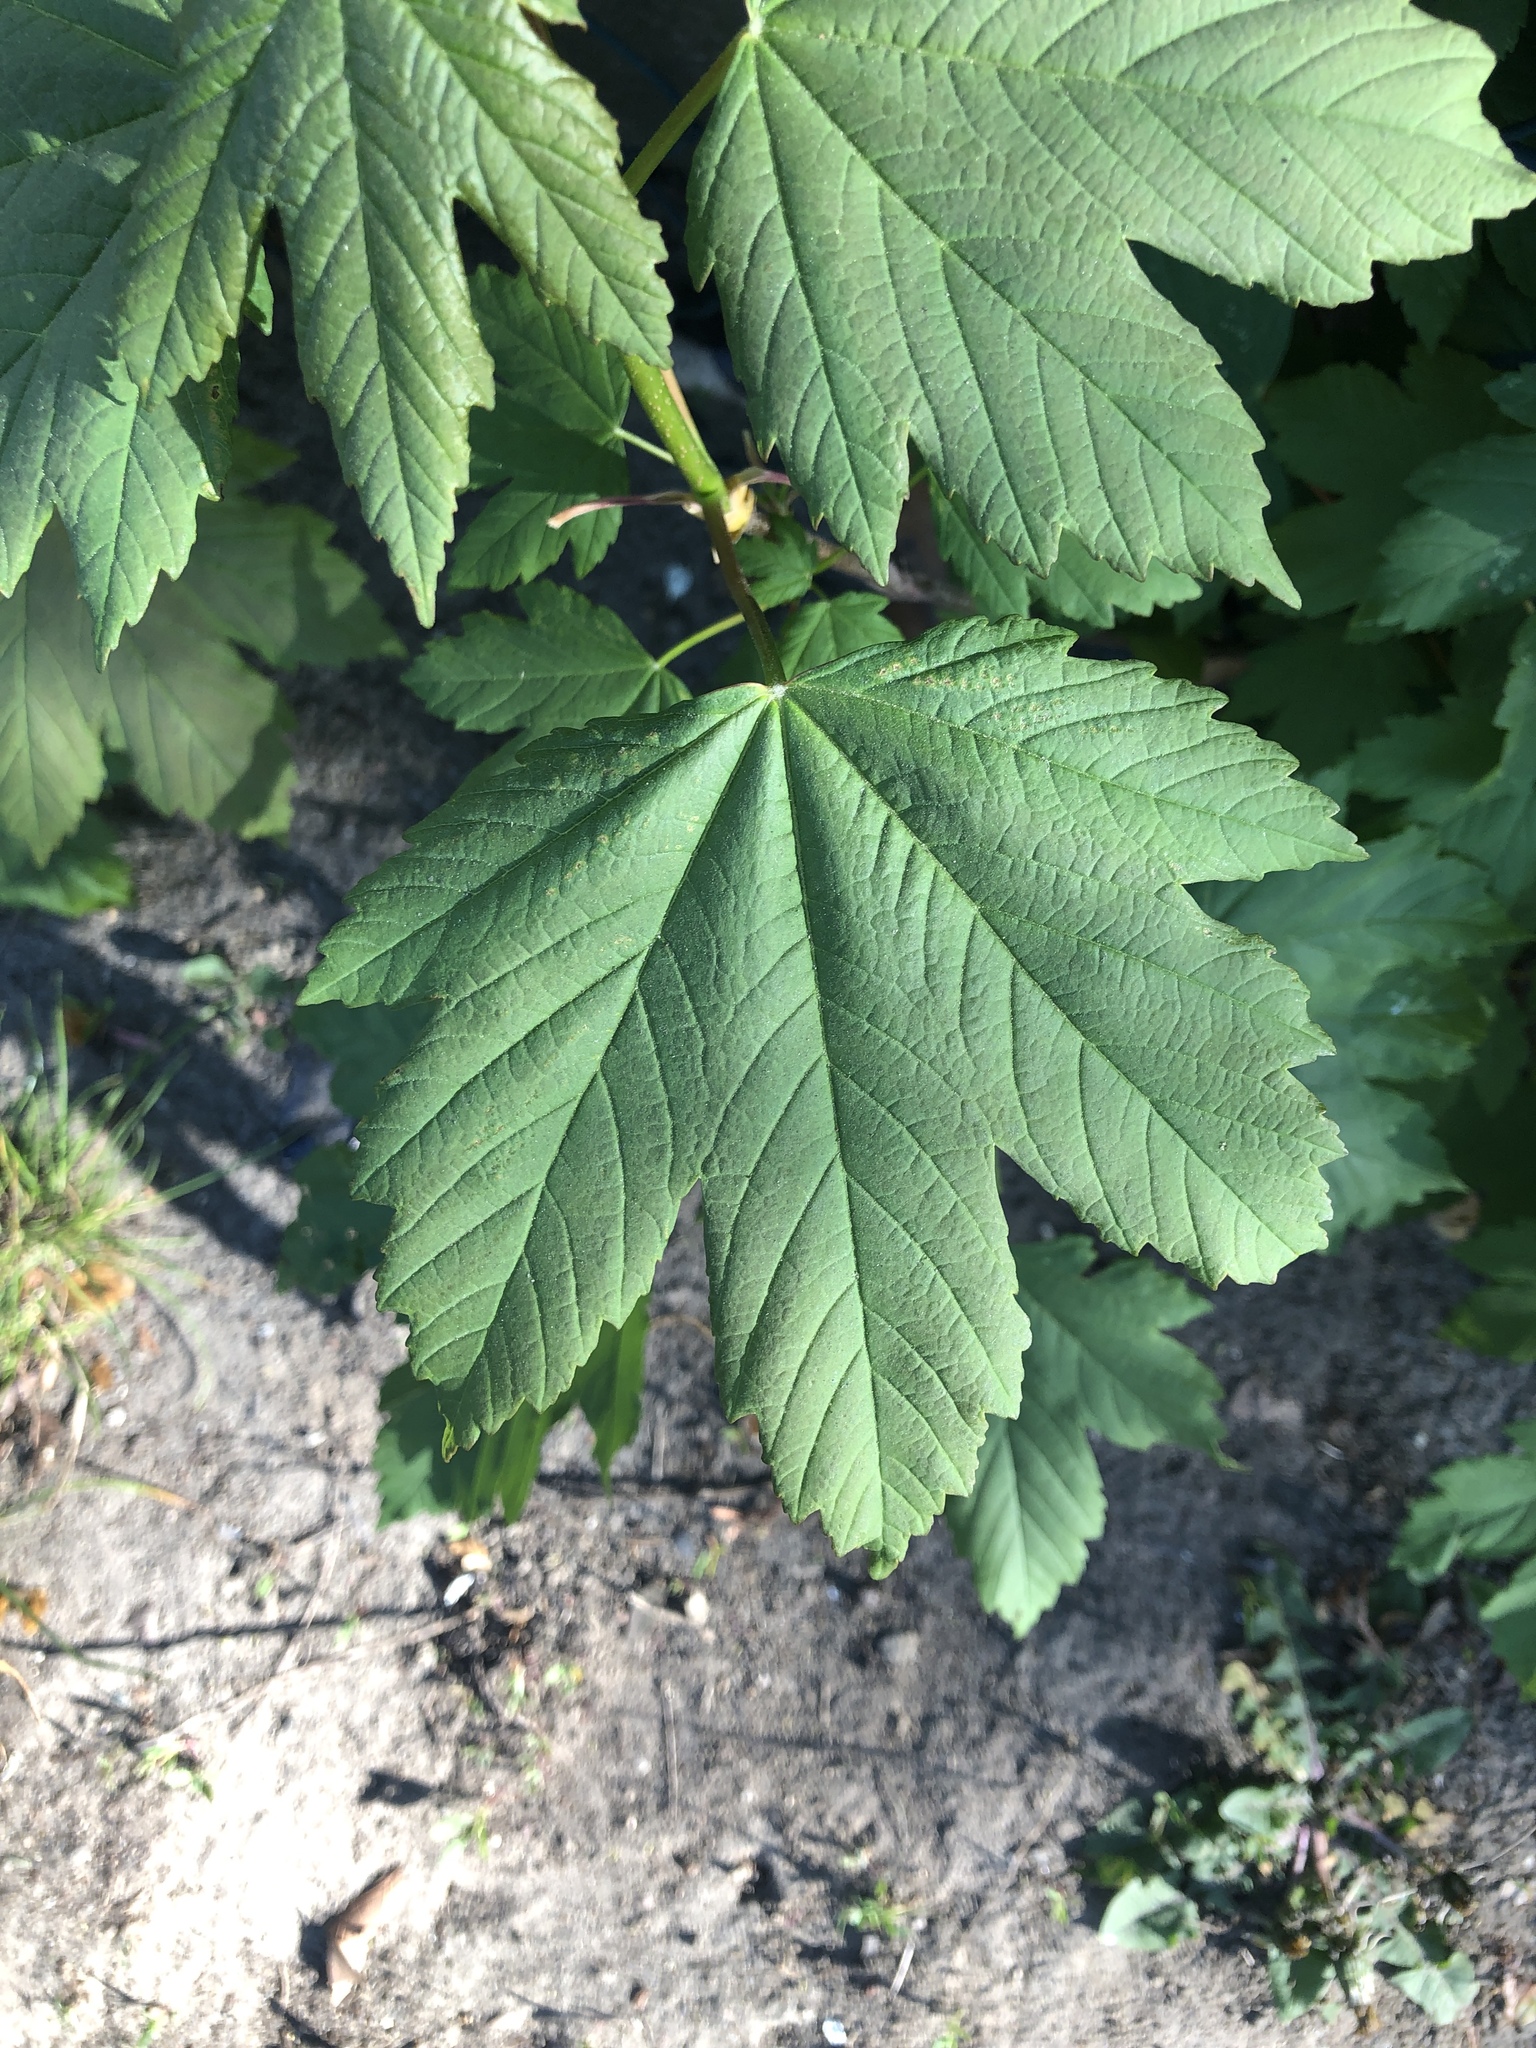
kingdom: Plantae
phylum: Tracheophyta
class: Magnoliopsida
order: Sapindales
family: Sapindaceae
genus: Acer
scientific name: Acer pseudoplatanus
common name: Sycamore
